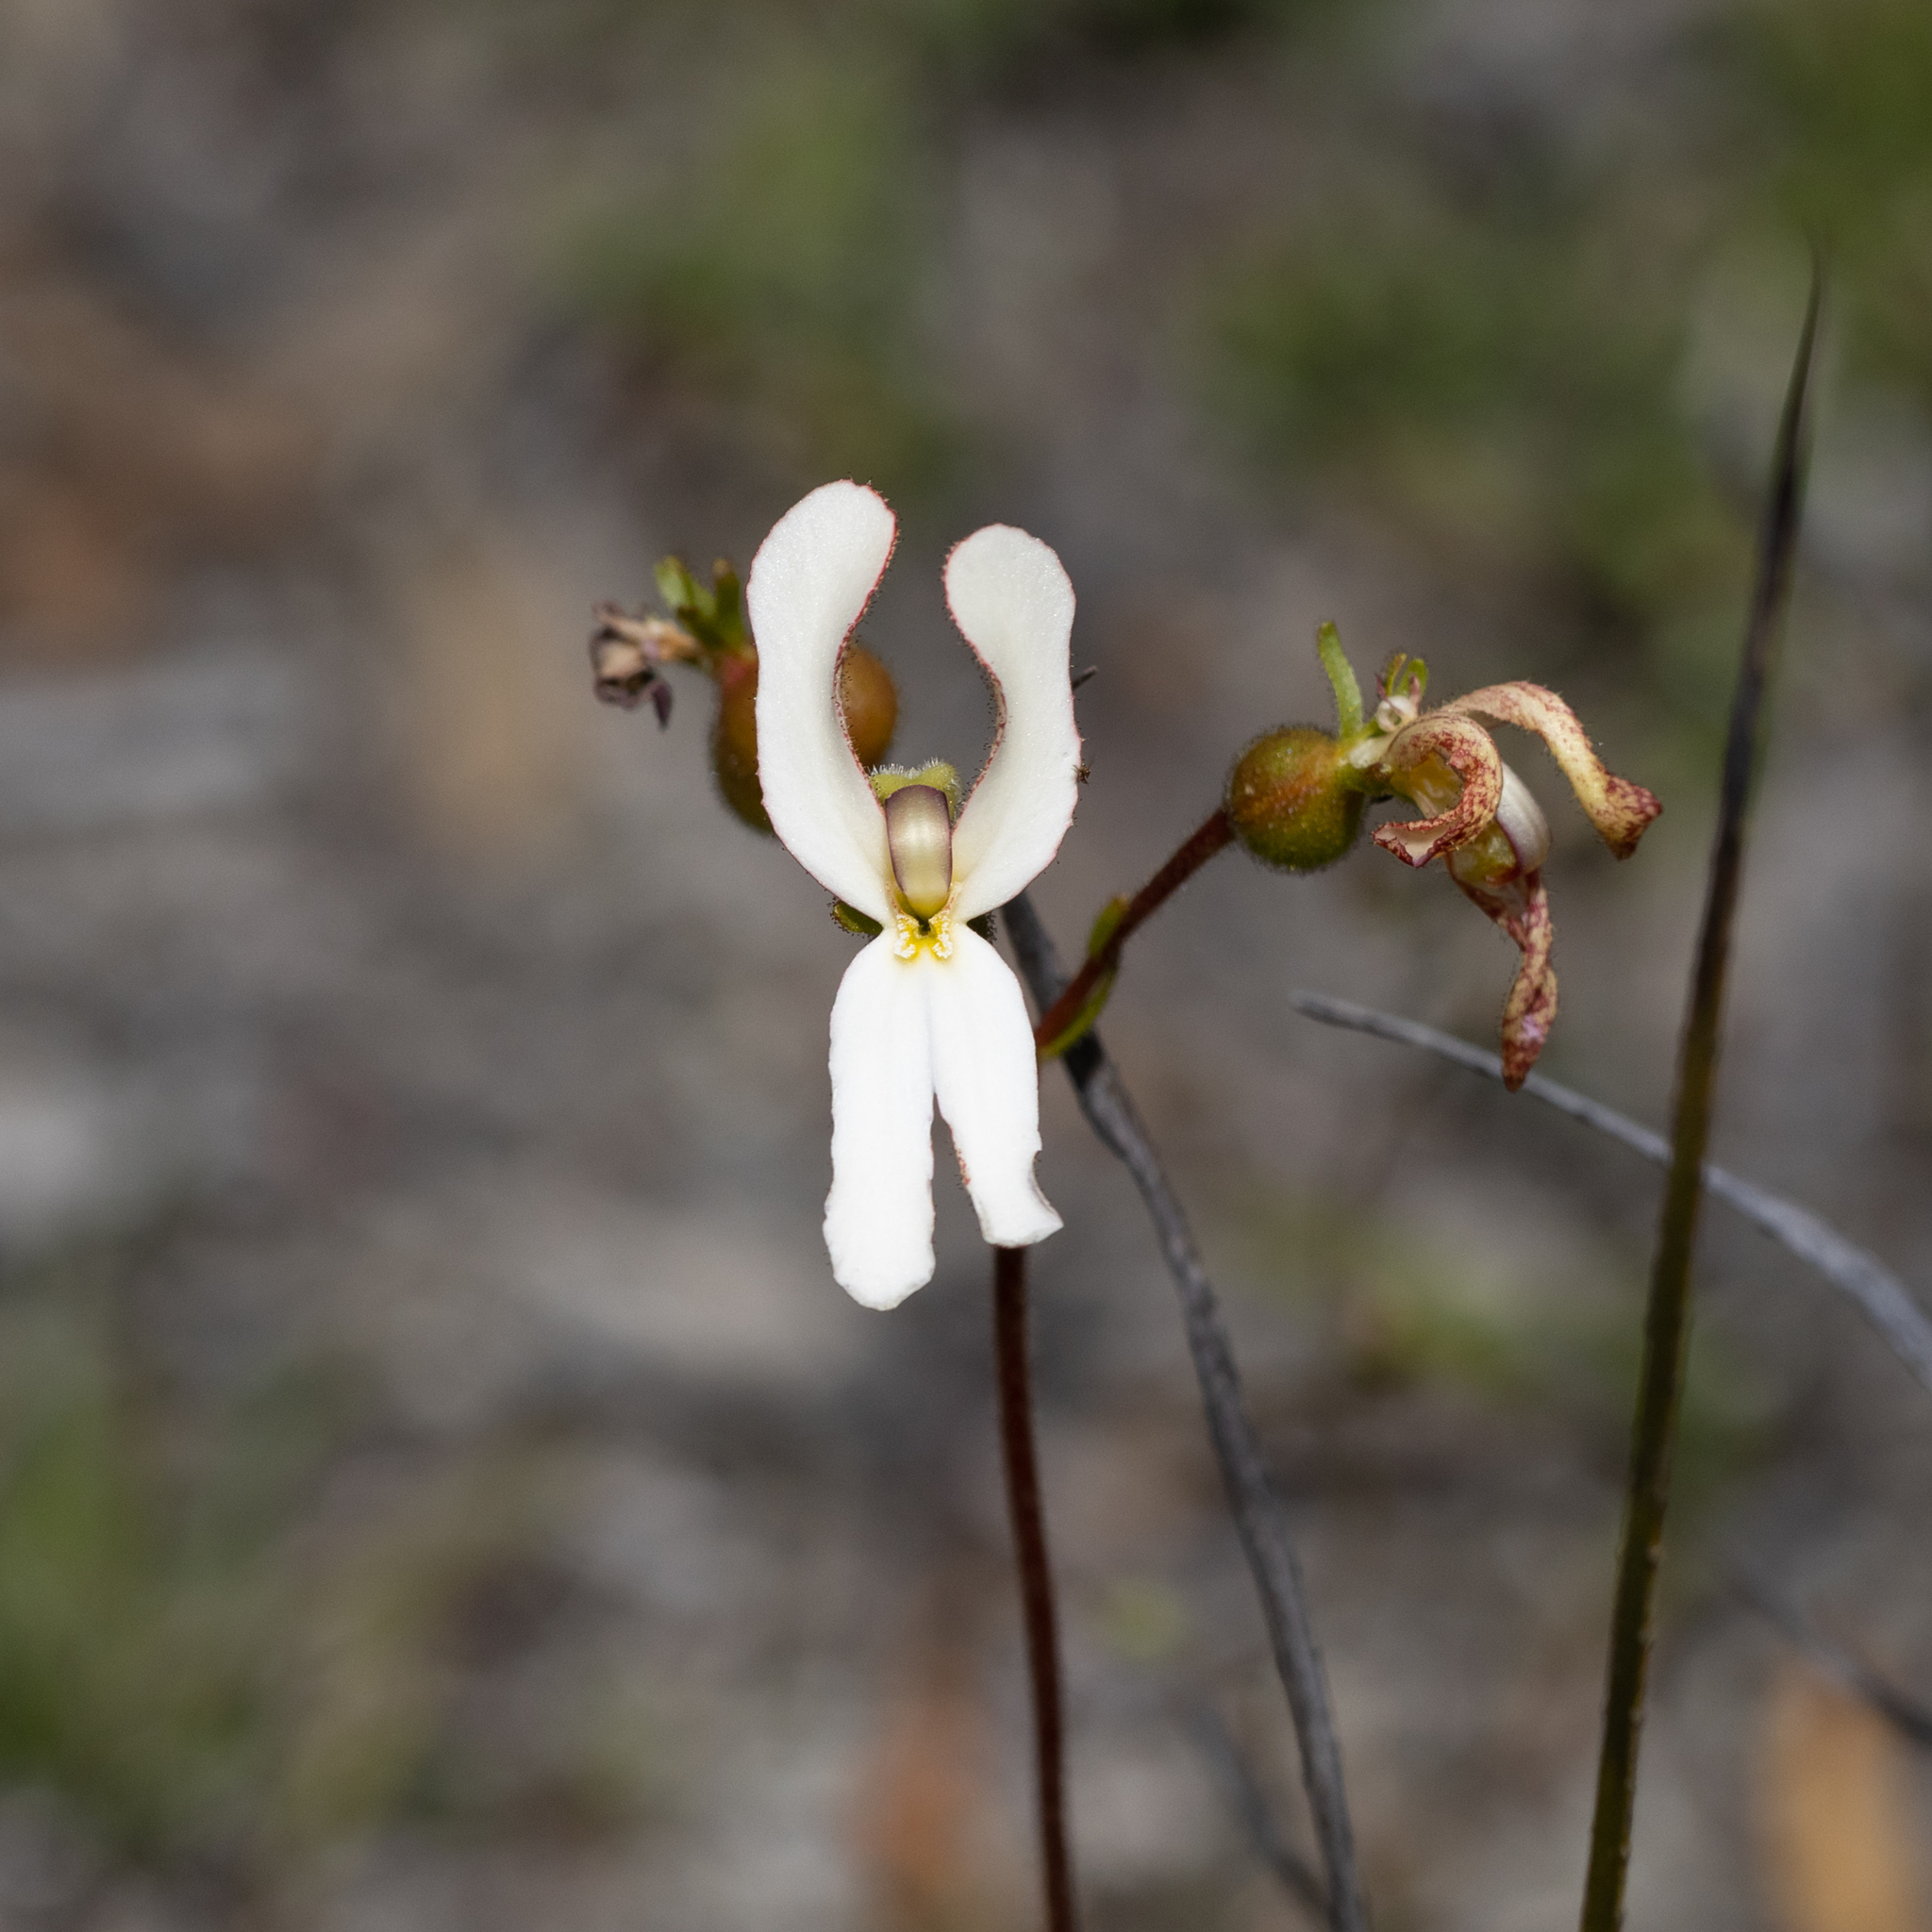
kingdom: Plantae
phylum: Tracheophyta
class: Magnoliopsida
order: Asterales
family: Stylidiaceae
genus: Stylidium
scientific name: Stylidium schoenoides
